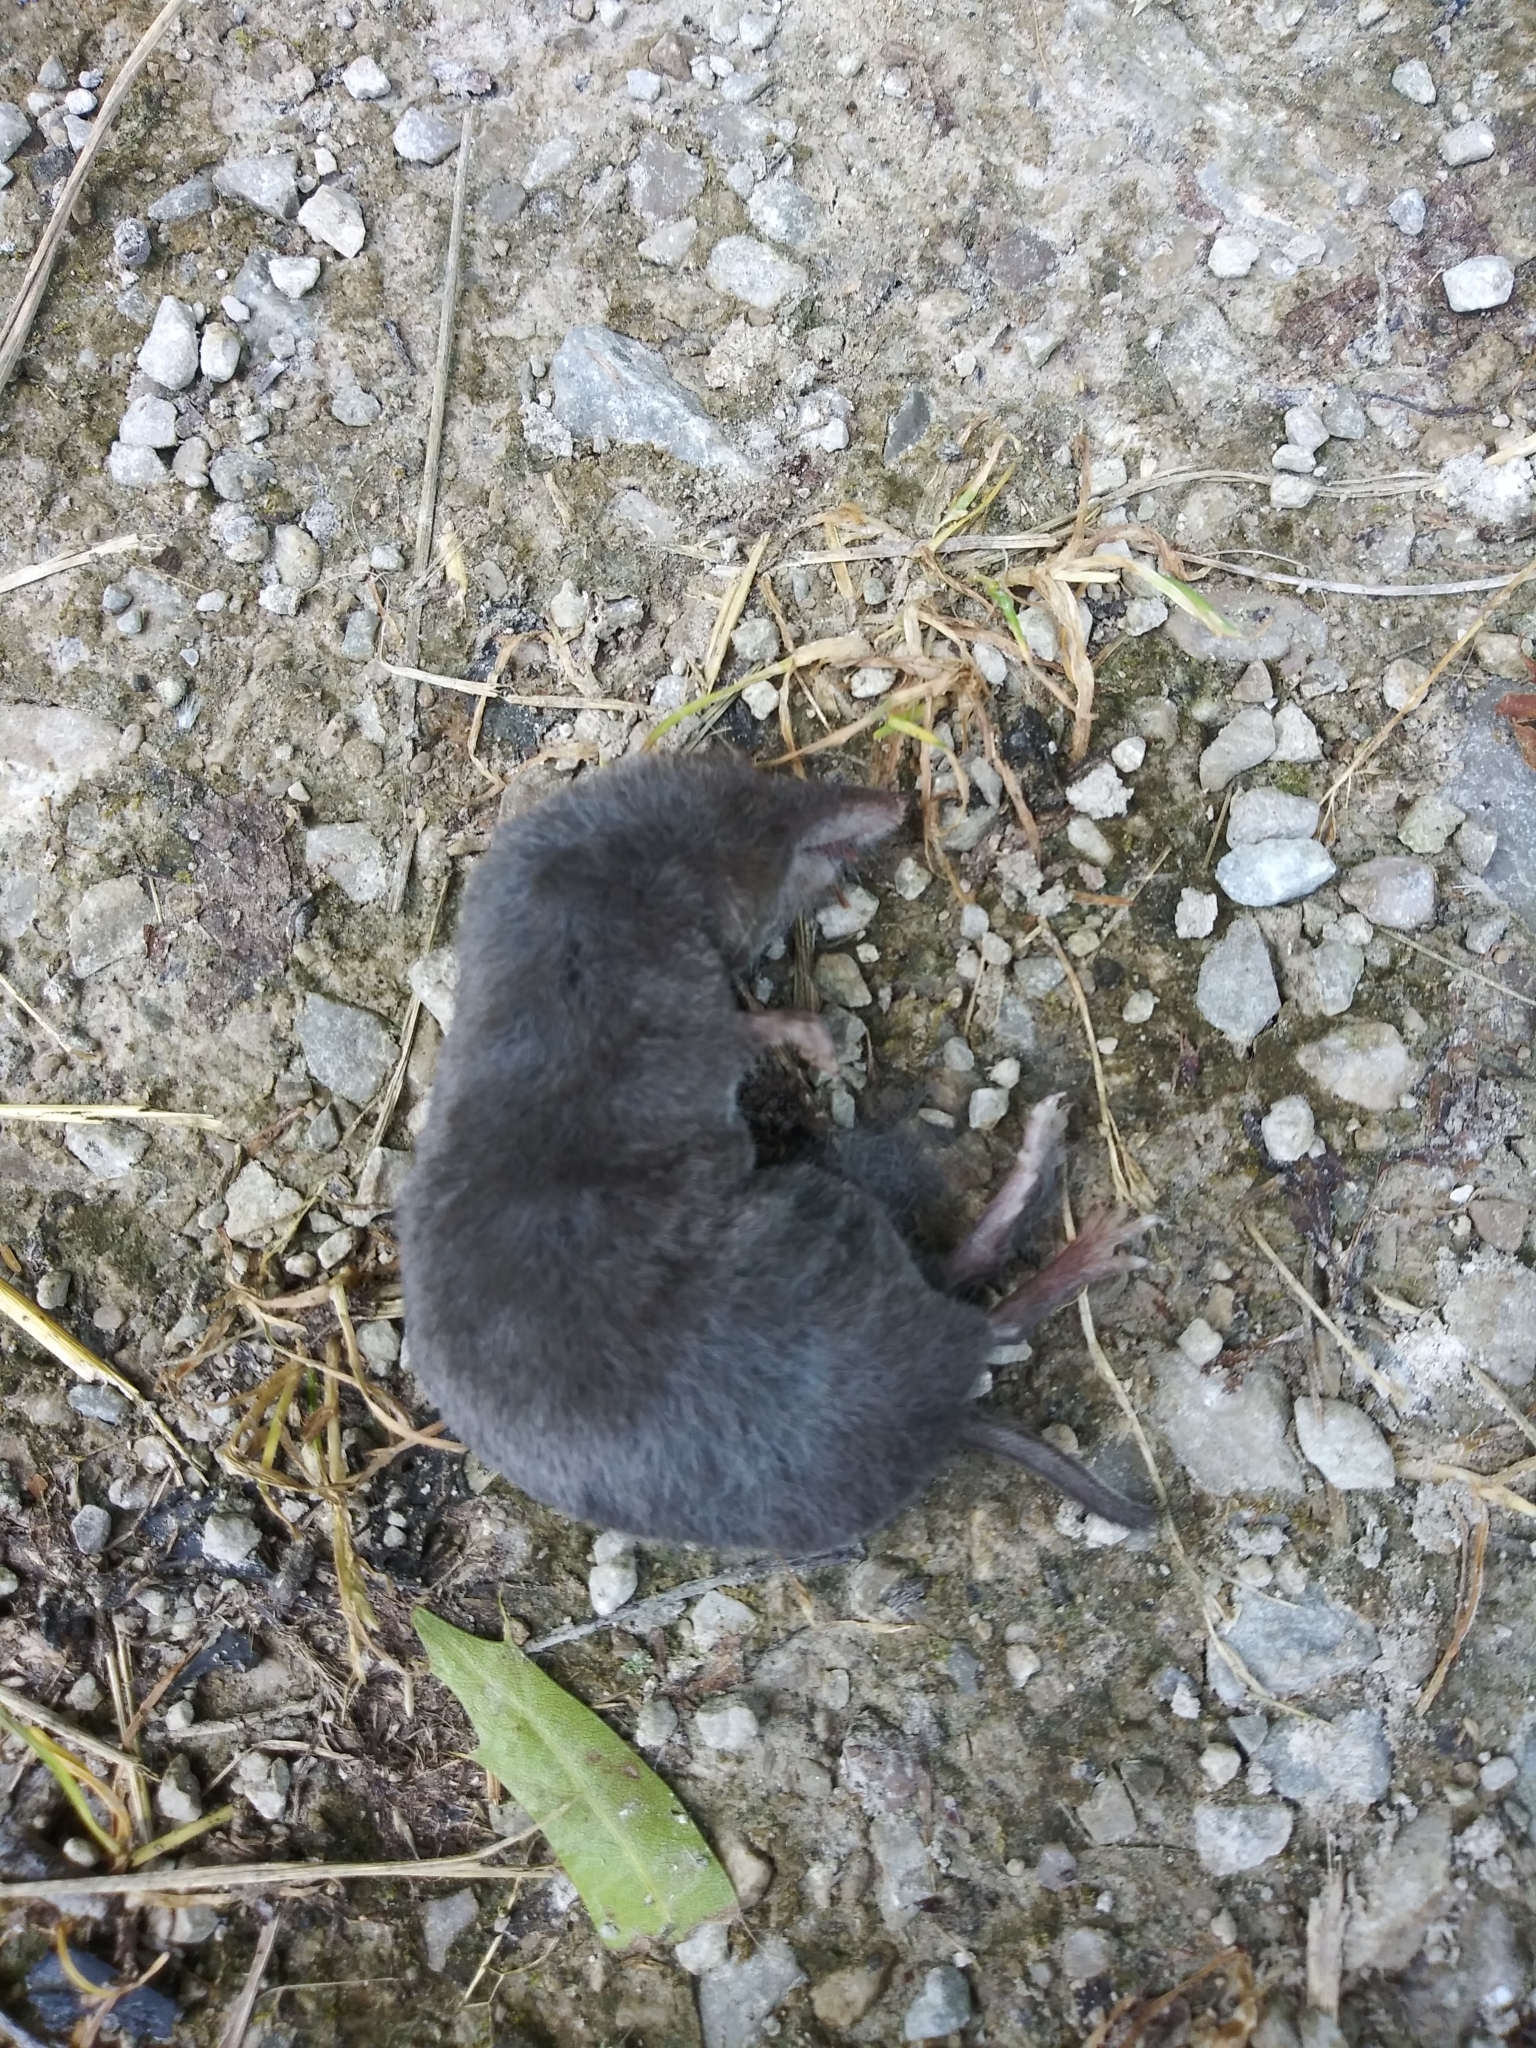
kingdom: Animalia
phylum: Chordata
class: Mammalia
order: Soricomorpha
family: Soricidae
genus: Blarina
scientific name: Blarina brevicauda
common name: Northern short-tailed shrew
